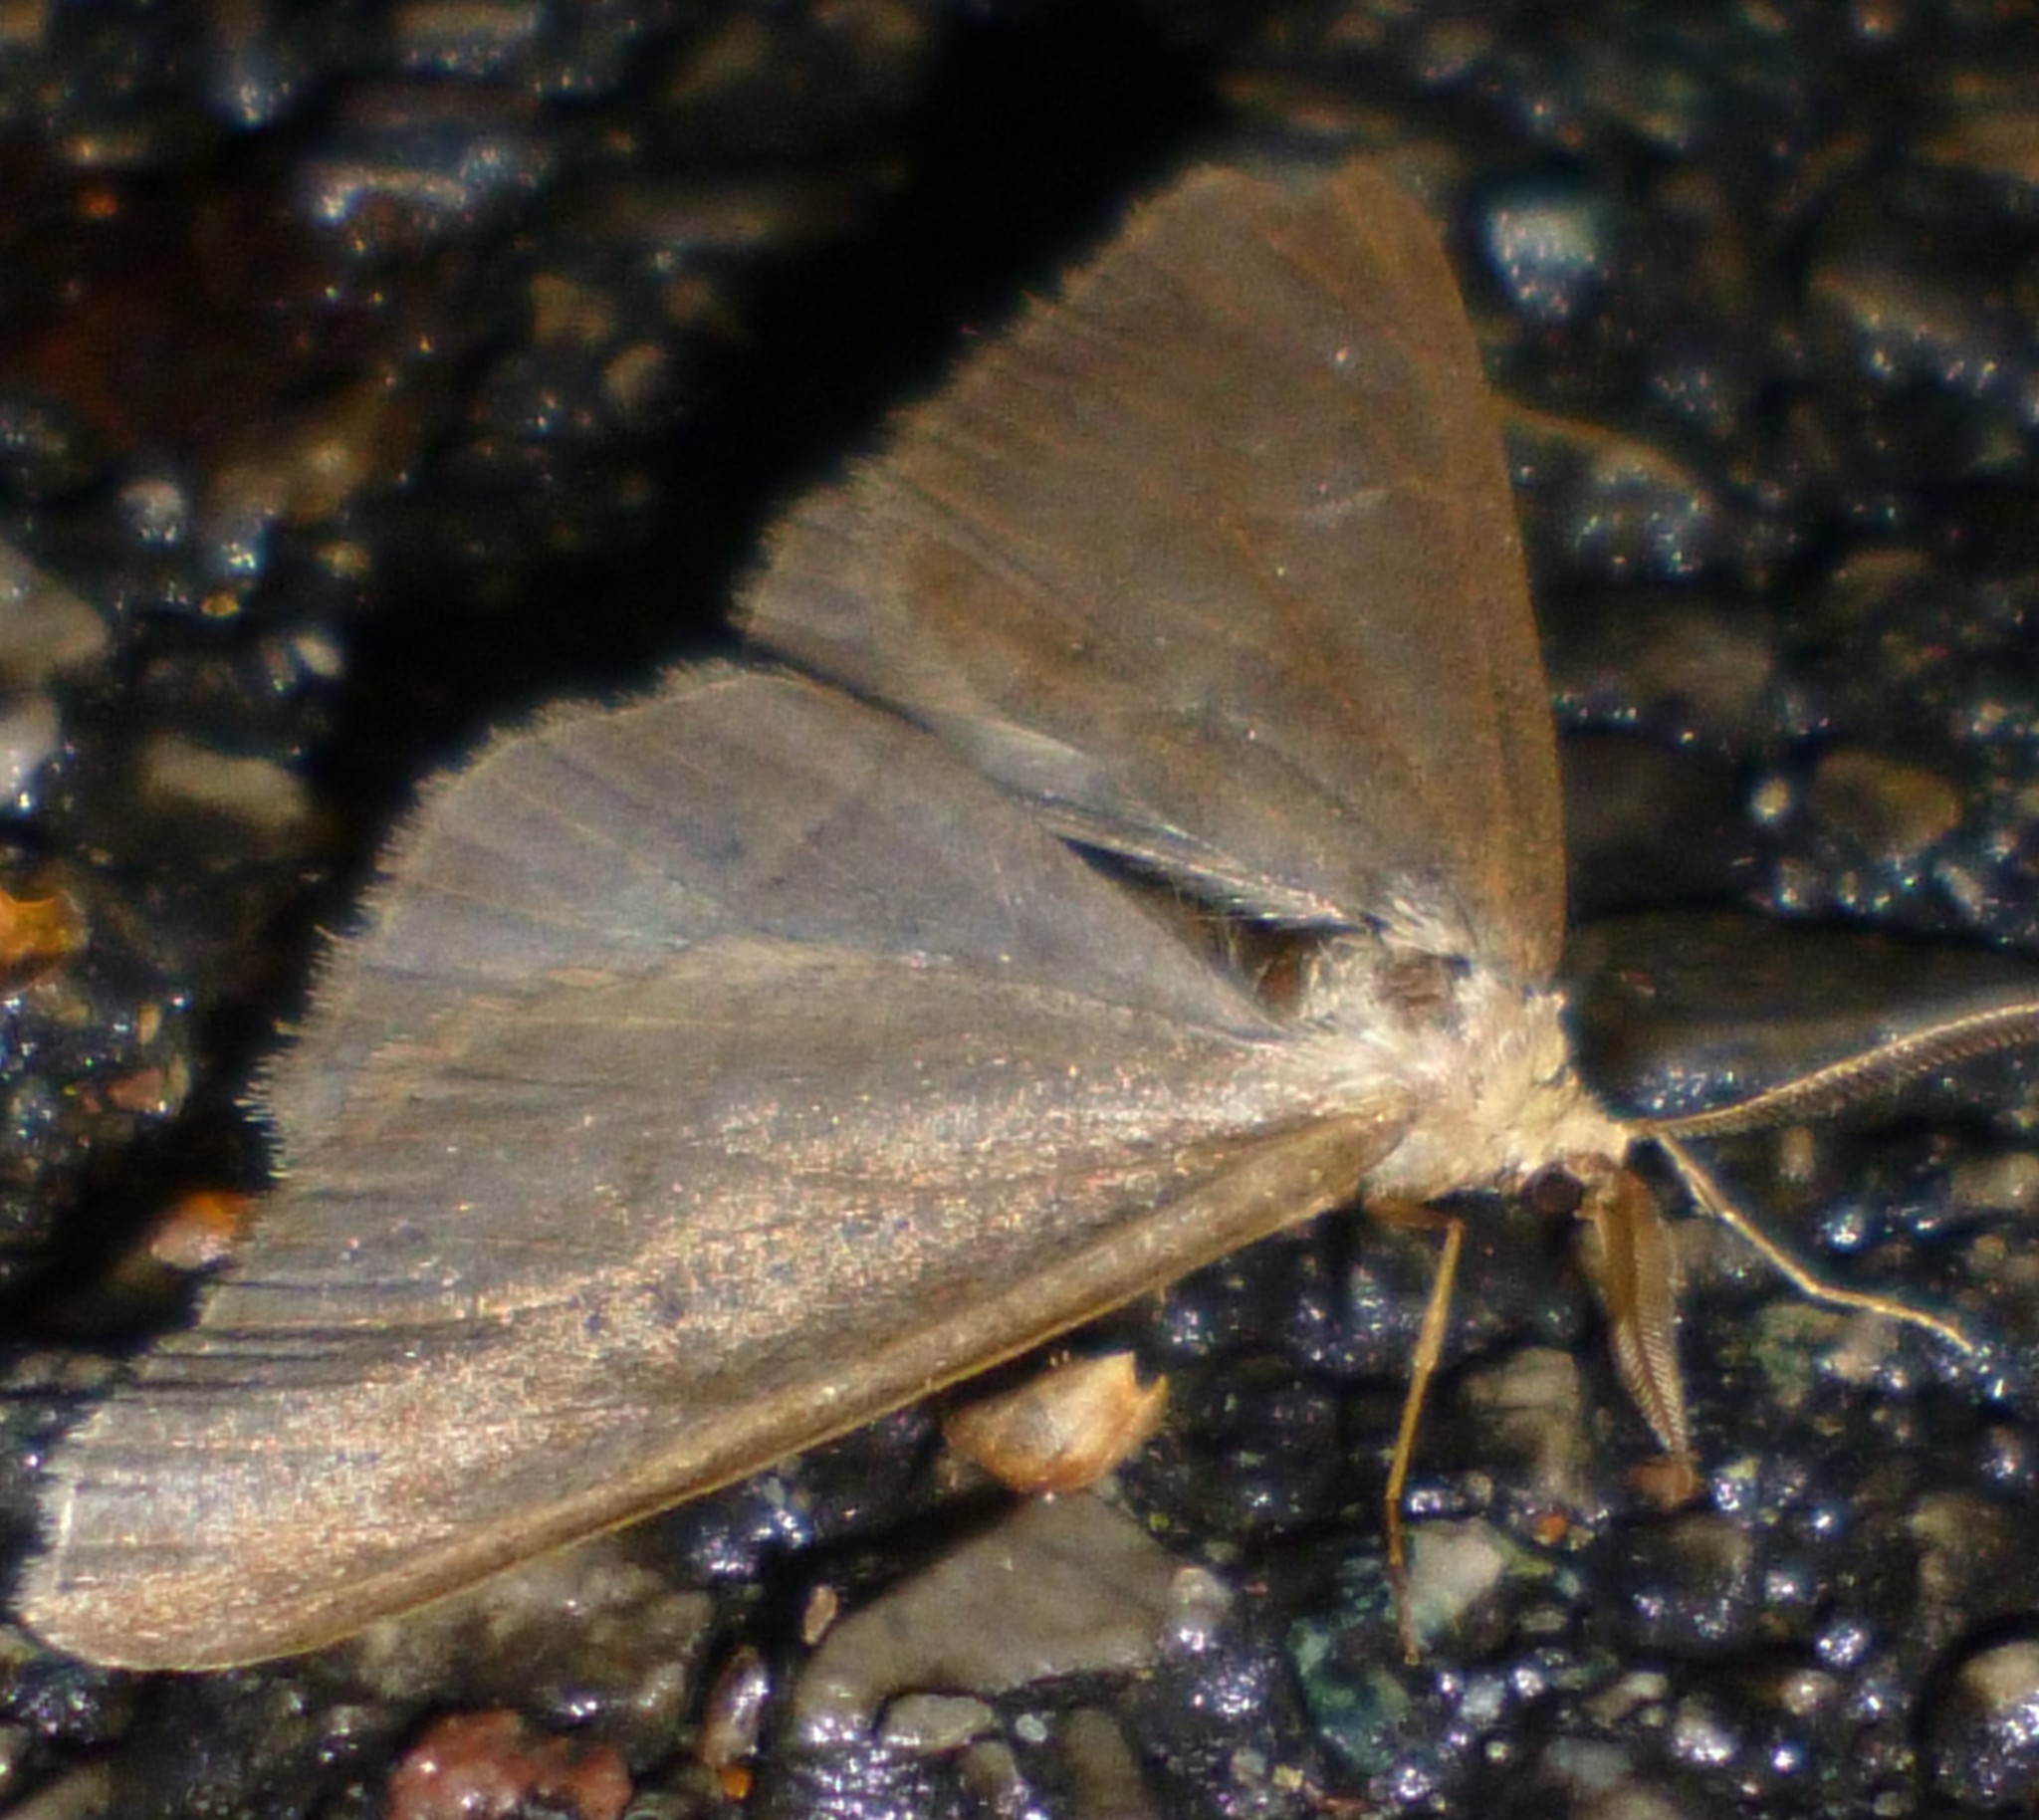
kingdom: Animalia
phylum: Arthropoda
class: Insecta
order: Lepidoptera
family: Geometridae
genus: Agriopis
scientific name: Agriopis marginaria
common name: Dotted border
